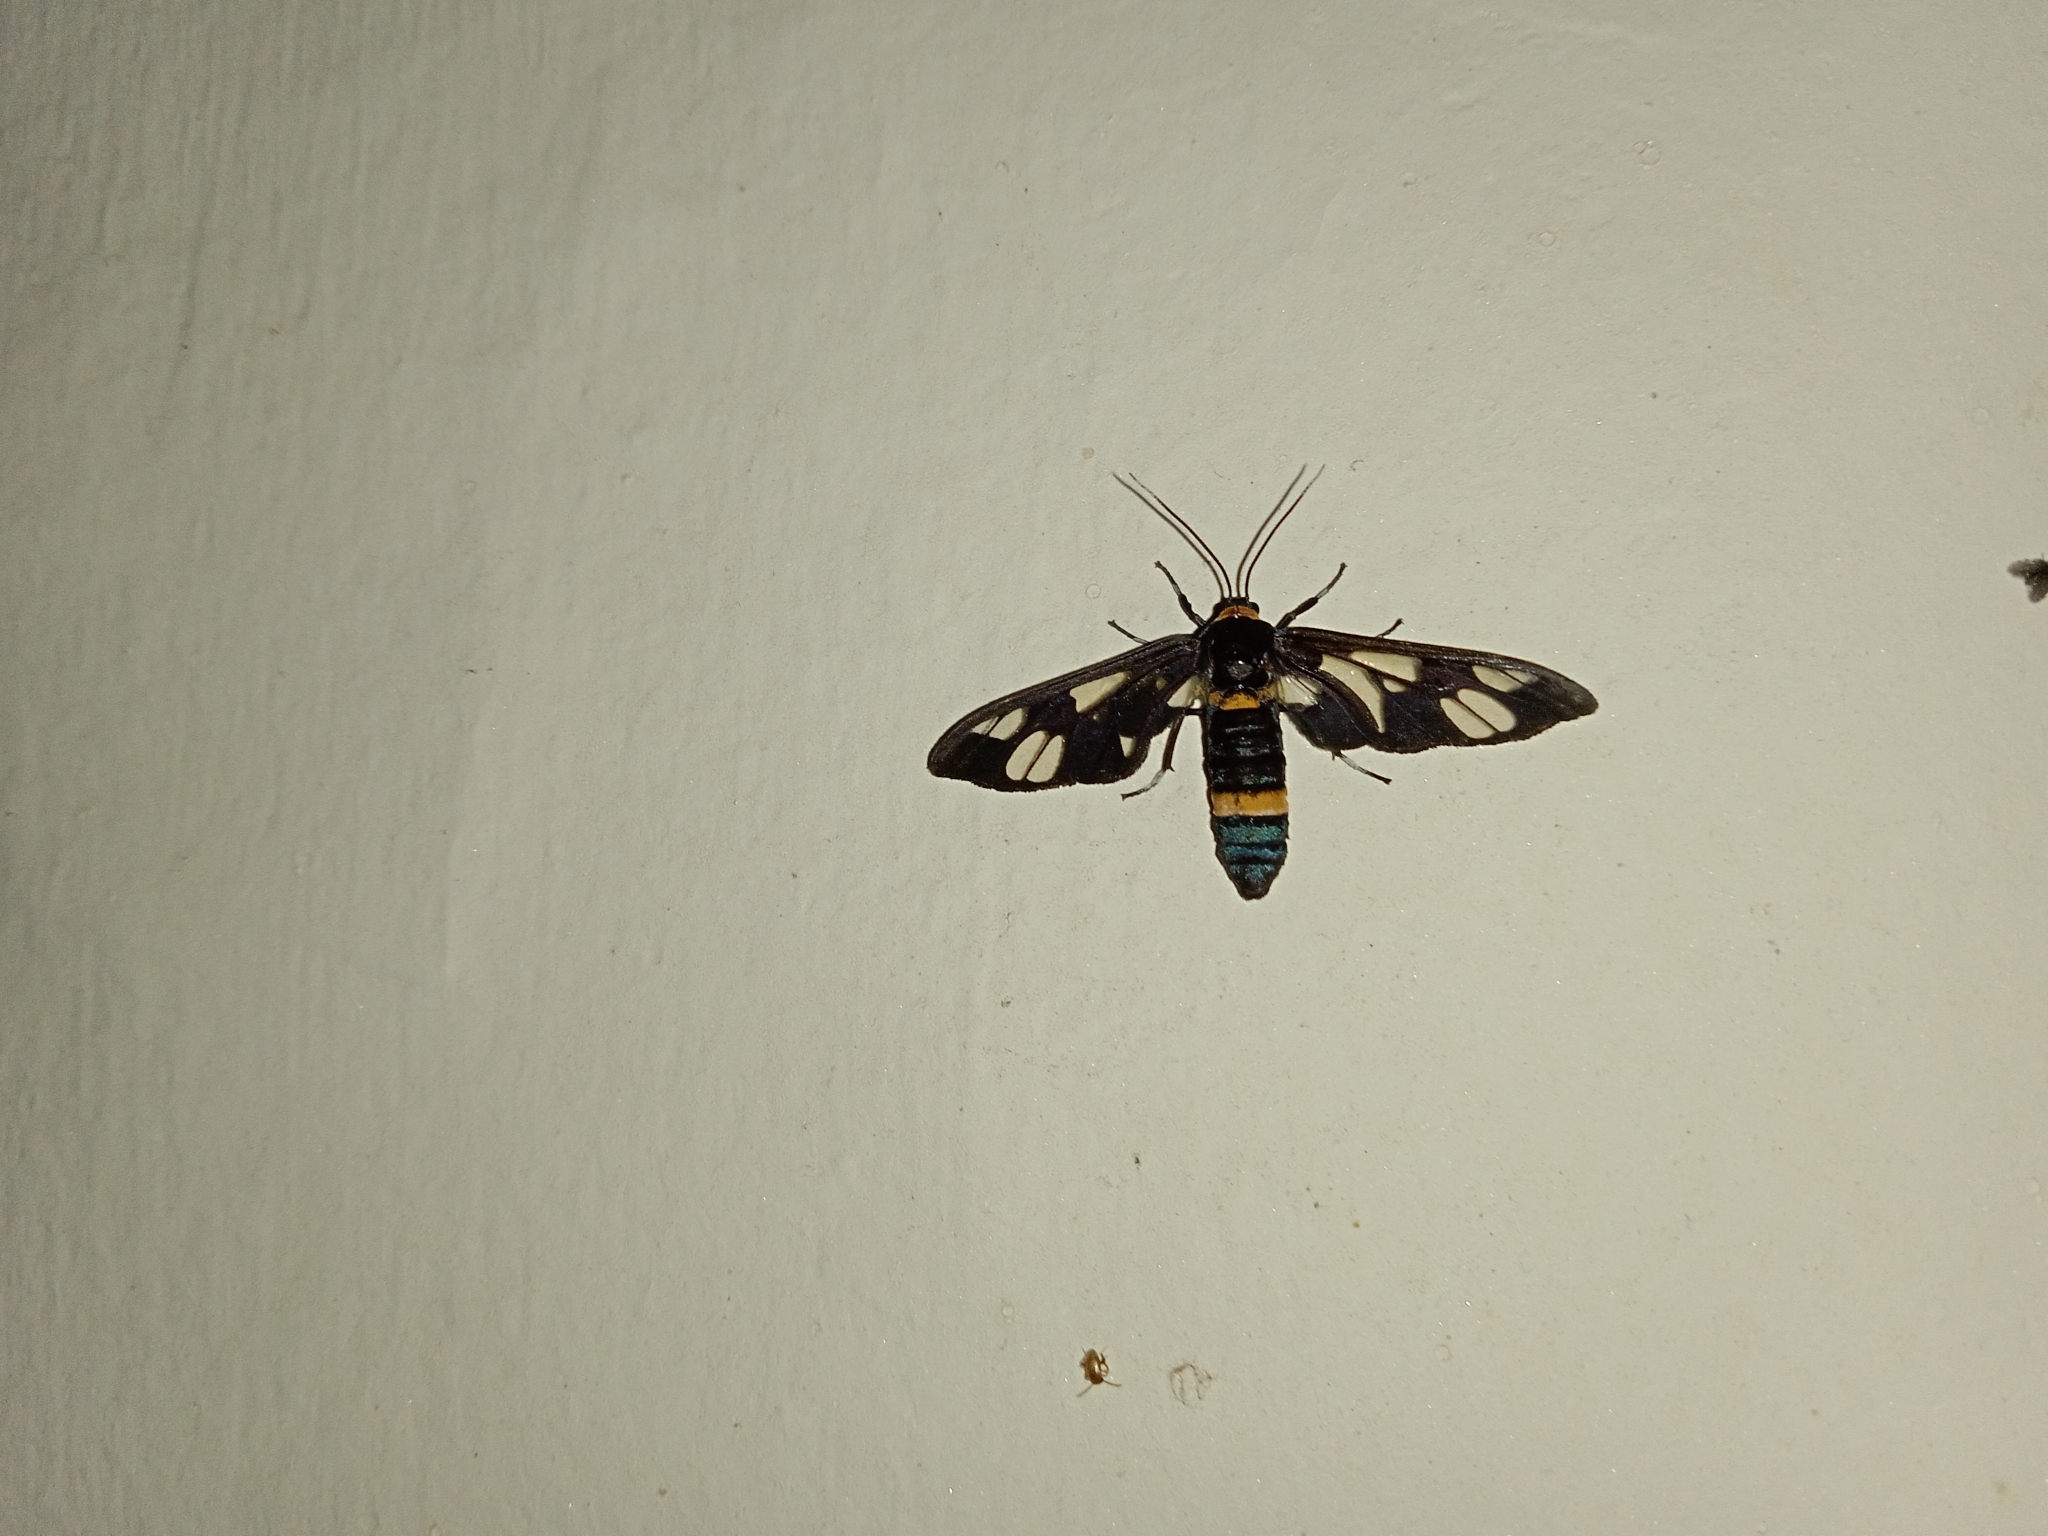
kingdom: Animalia
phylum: Arthropoda
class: Insecta
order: Lepidoptera
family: Erebidae
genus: Syntomoides
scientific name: Syntomoides imaon
